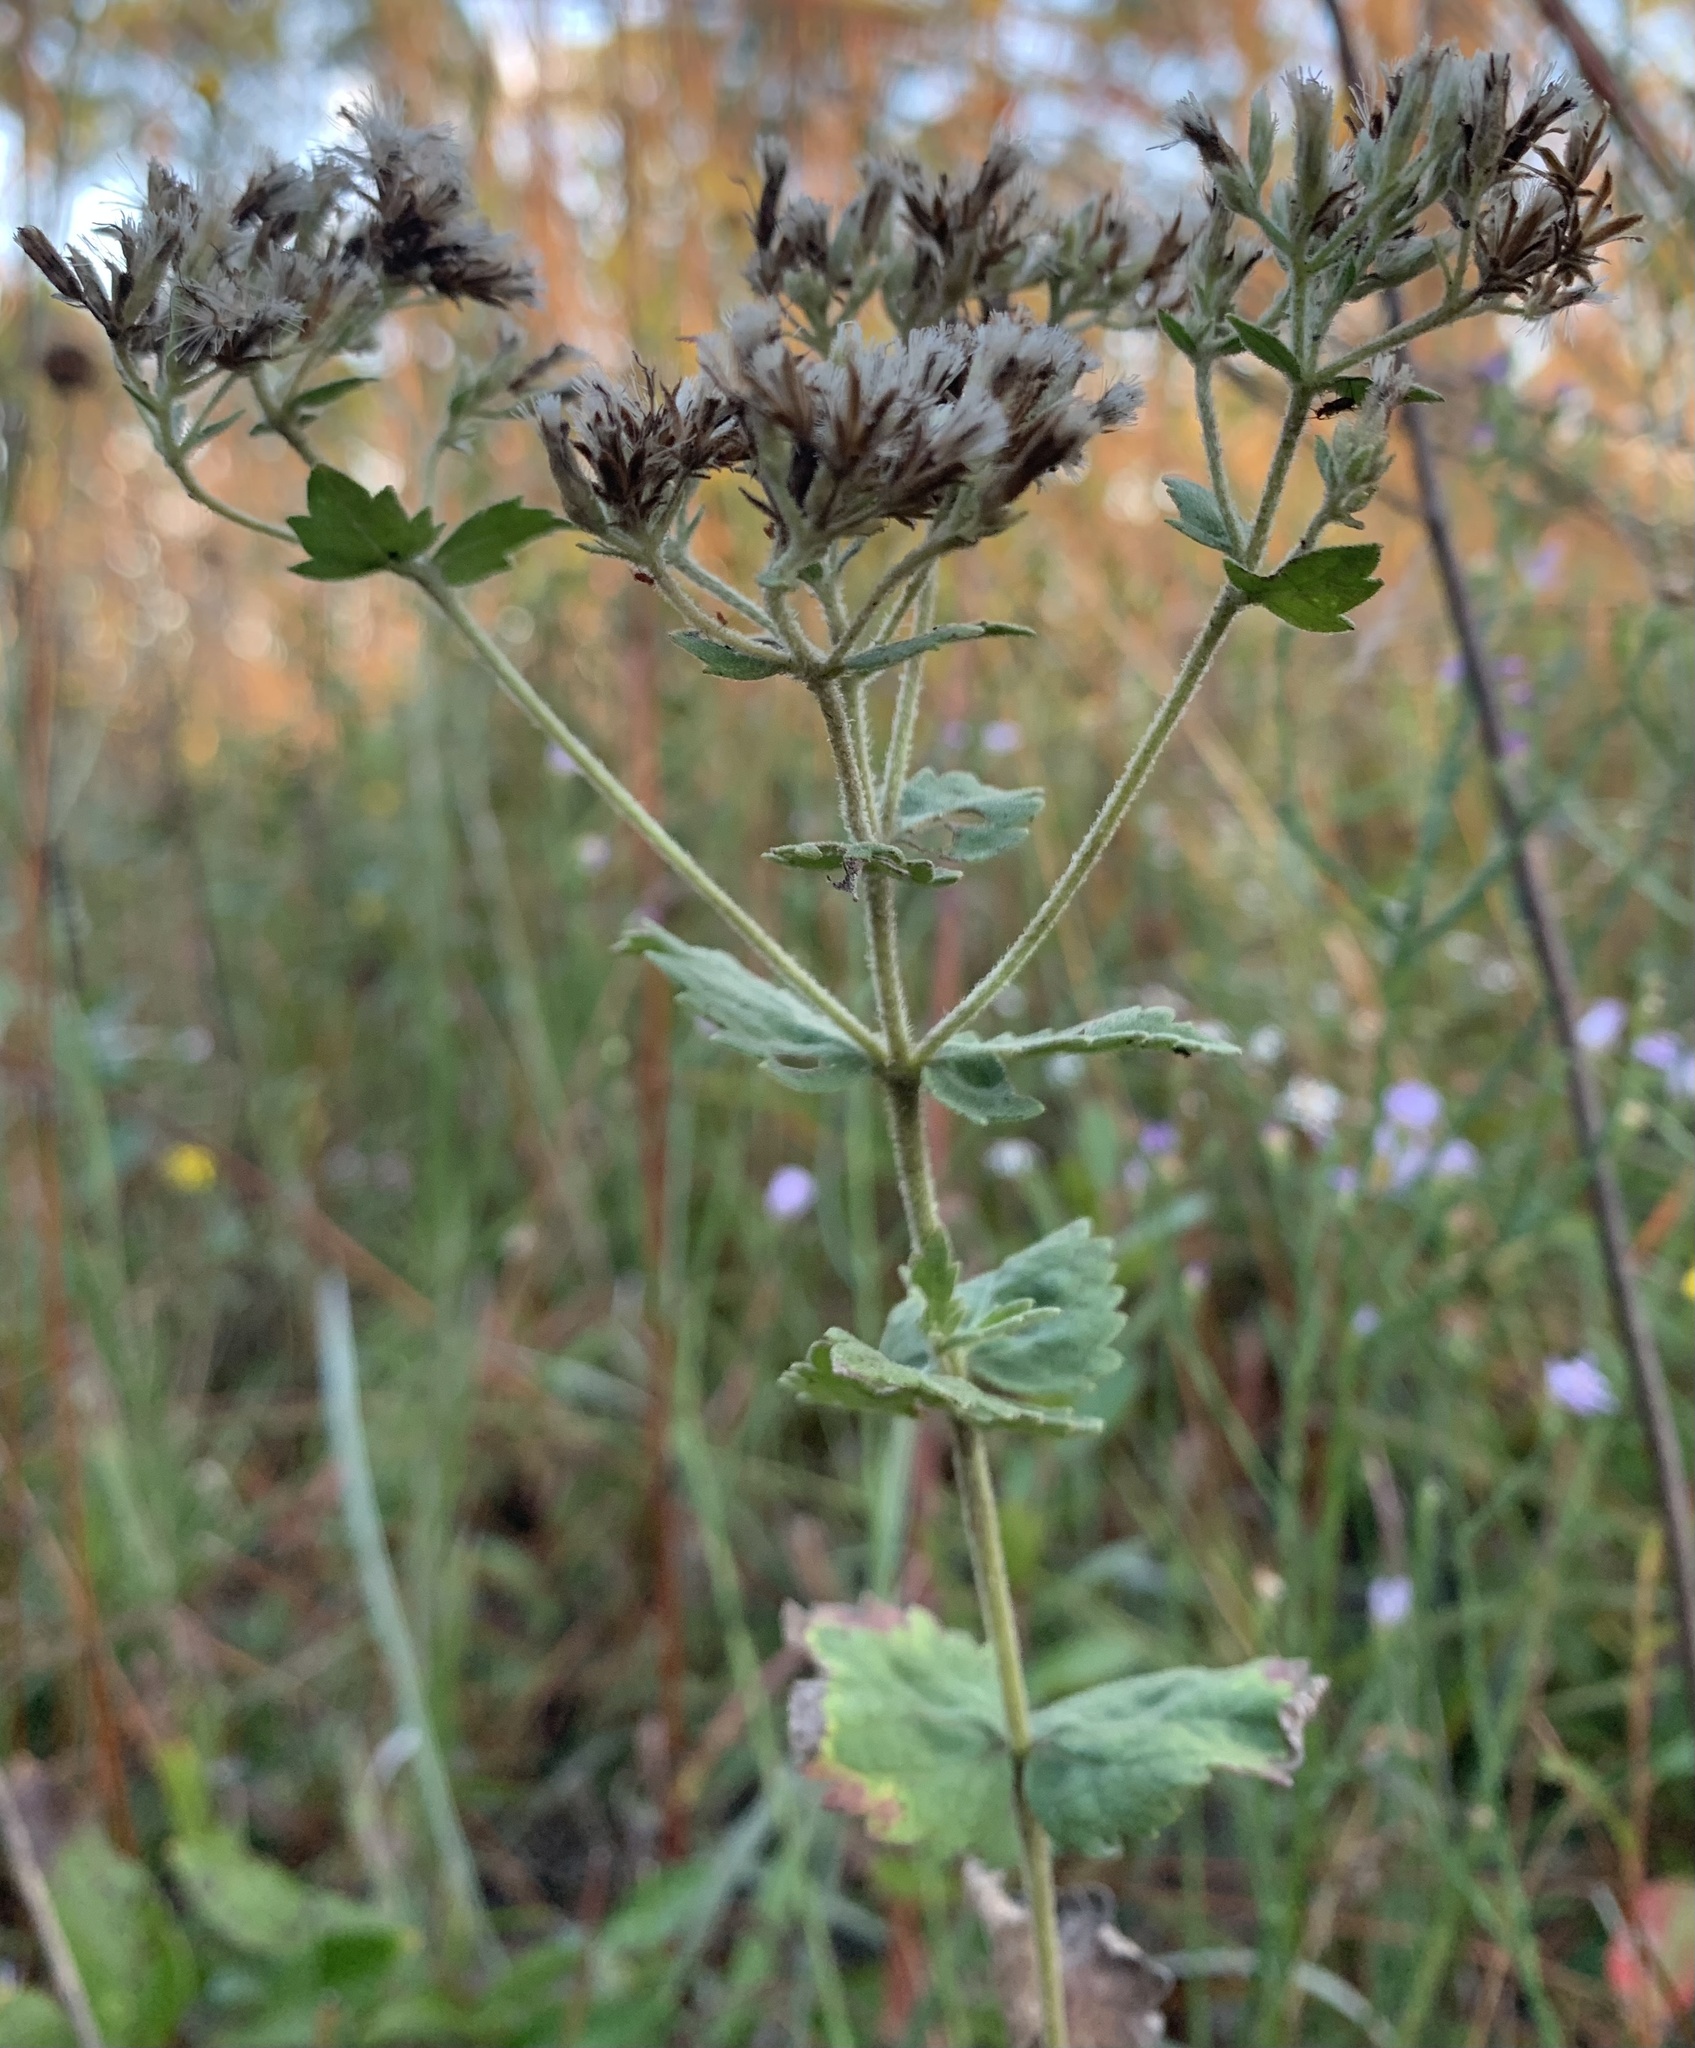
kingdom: Plantae
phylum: Tracheophyta
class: Magnoliopsida
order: Asterales
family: Asteraceae
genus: Eupatorium
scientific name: Eupatorium rotundifolium
